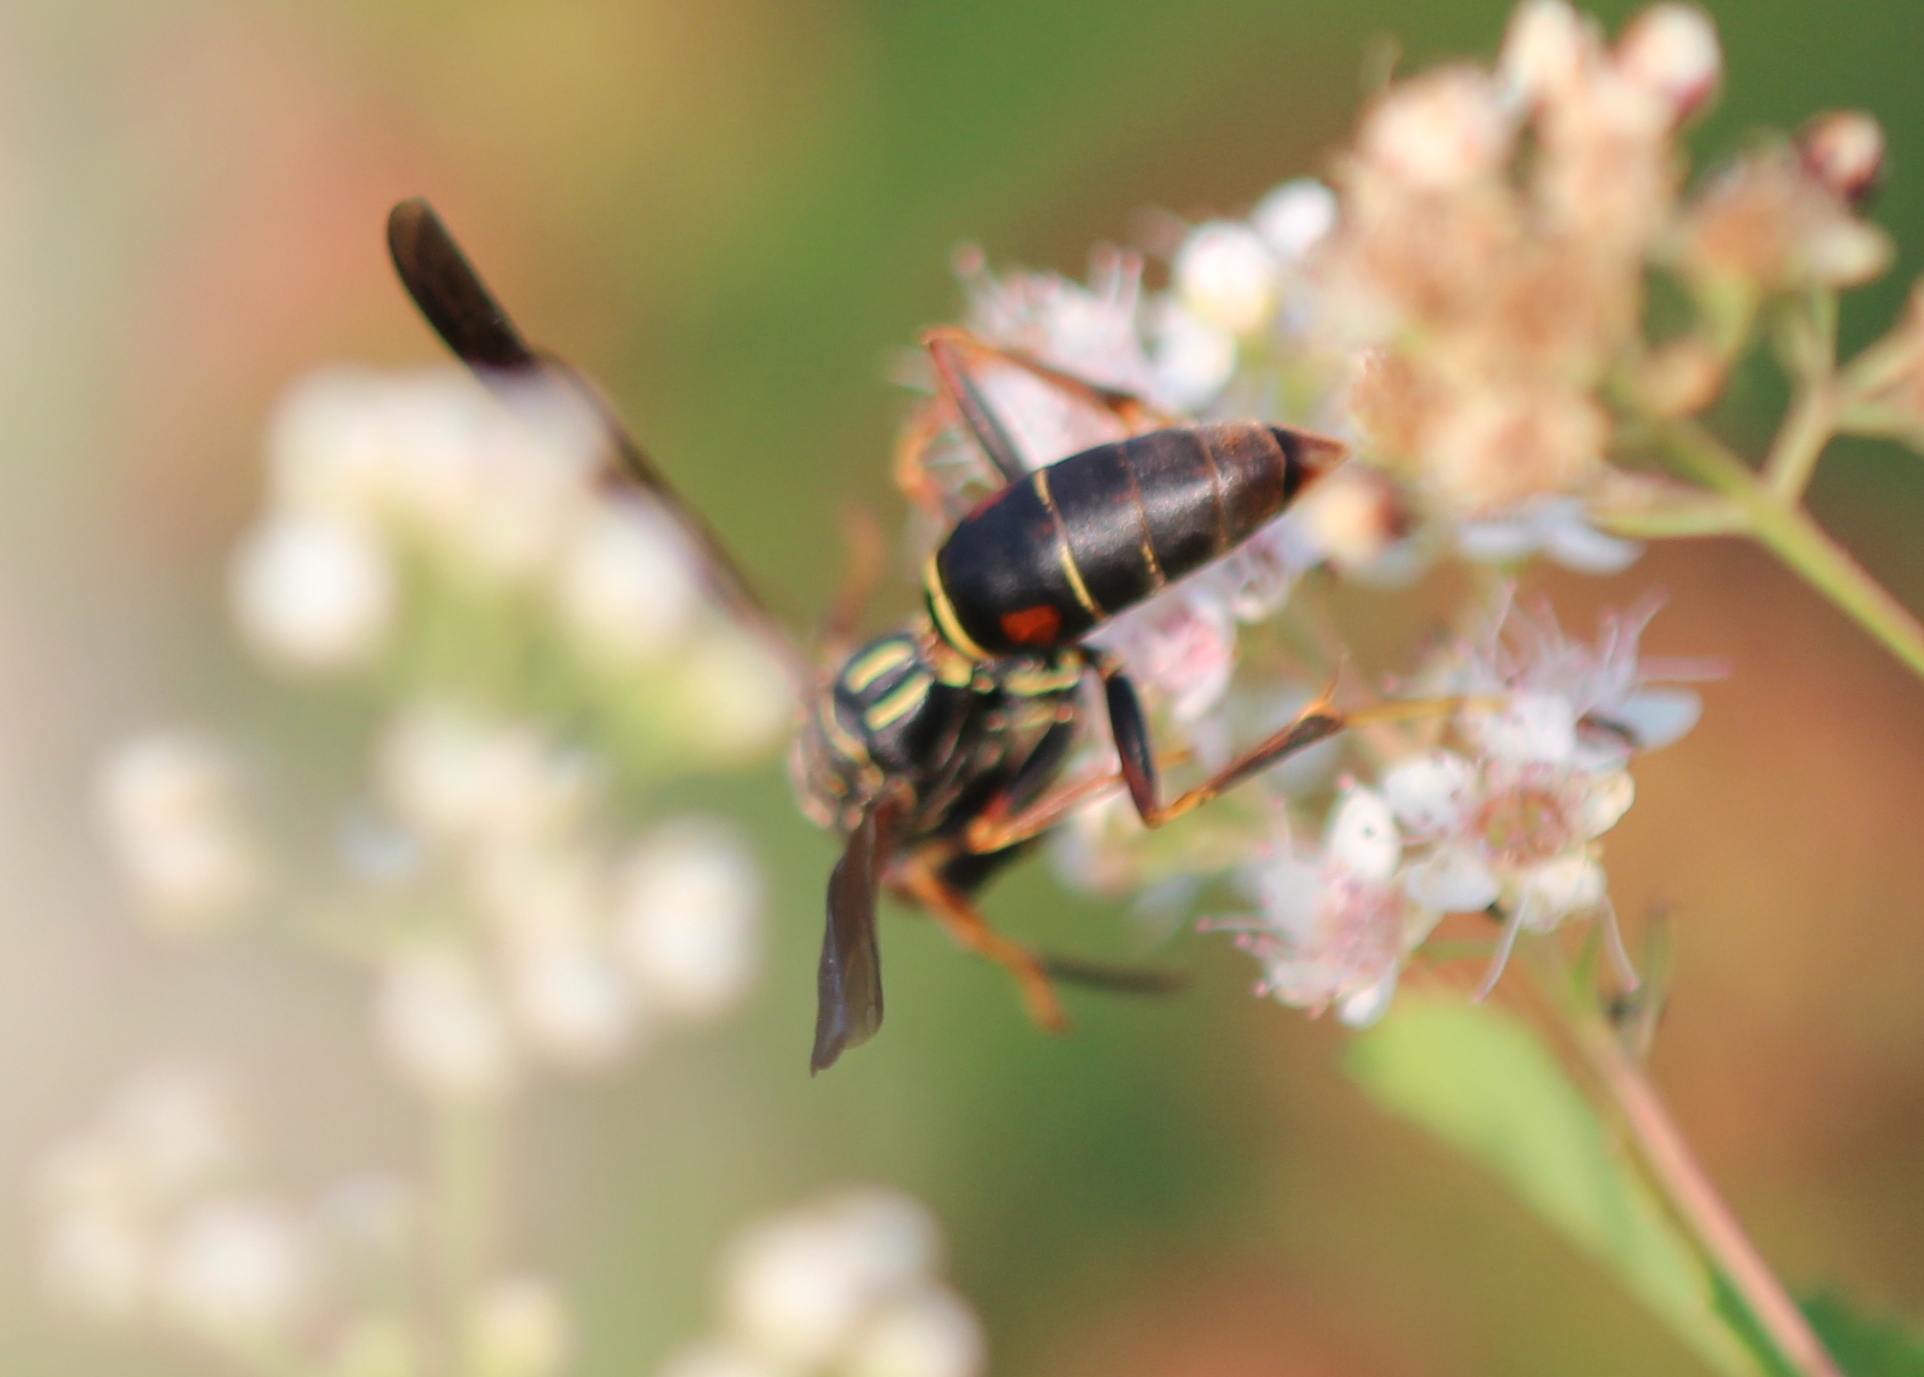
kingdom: Animalia
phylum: Arthropoda
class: Insecta
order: Hymenoptera
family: Eumenidae
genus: Polistes
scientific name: Polistes fuscatus
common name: Dark paper wasp
